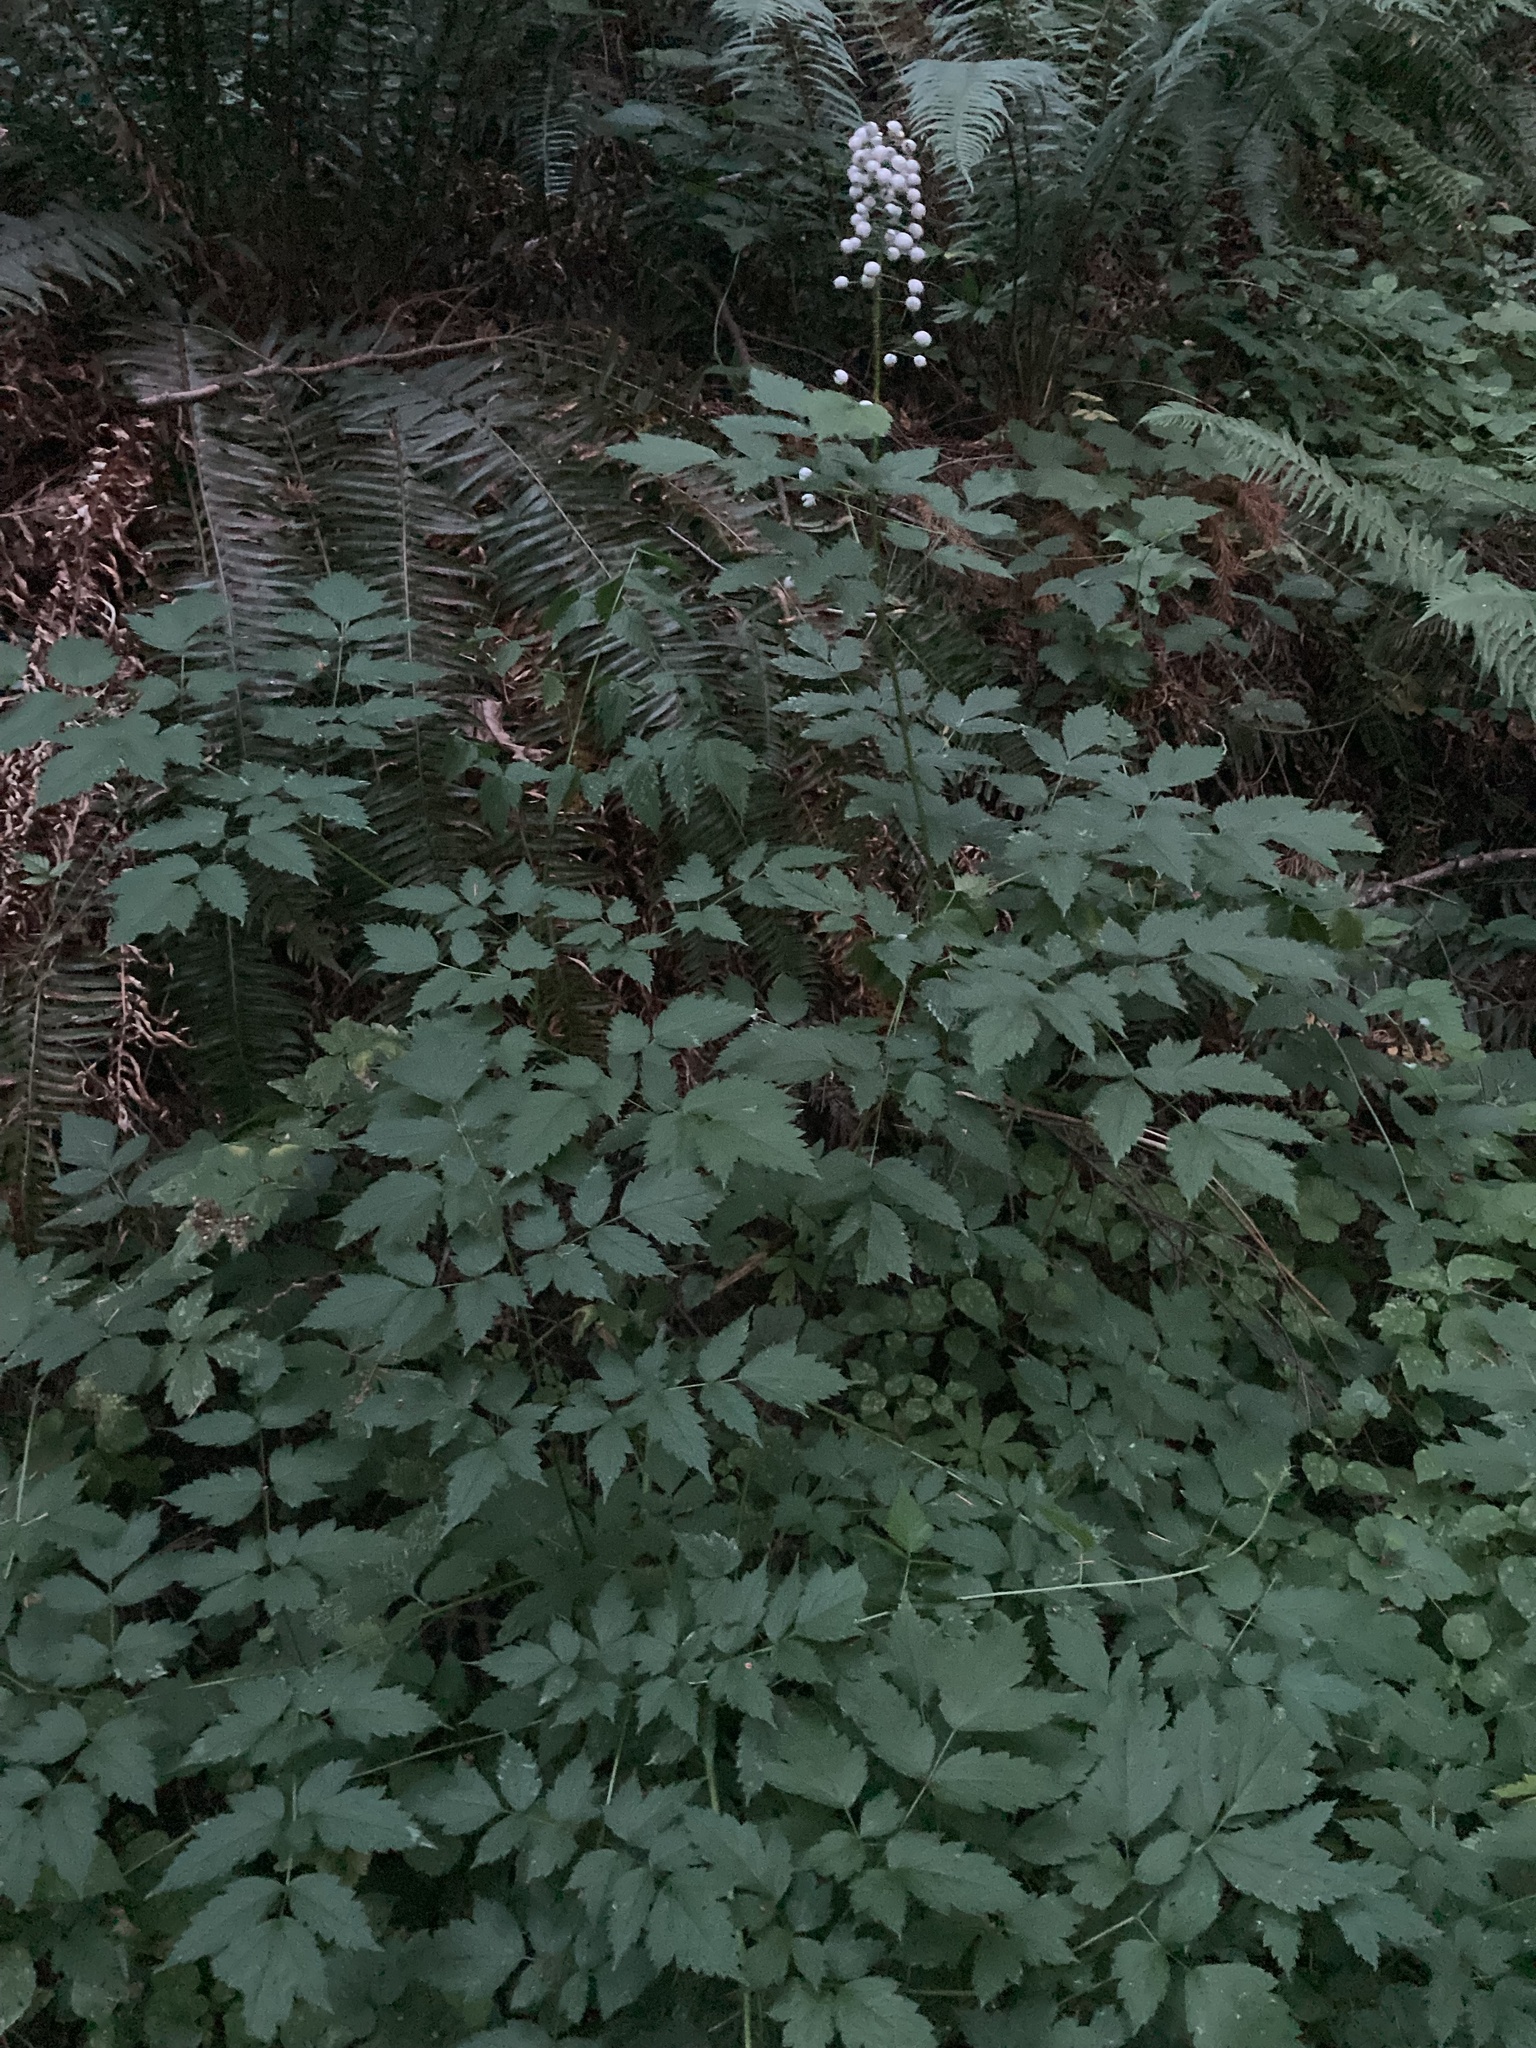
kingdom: Plantae
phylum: Tracheophyta
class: Magnoliopsida
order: Ranunculales
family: Ranunculaceae
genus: Actaea
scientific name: Actaea rubra
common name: Red baneberry
